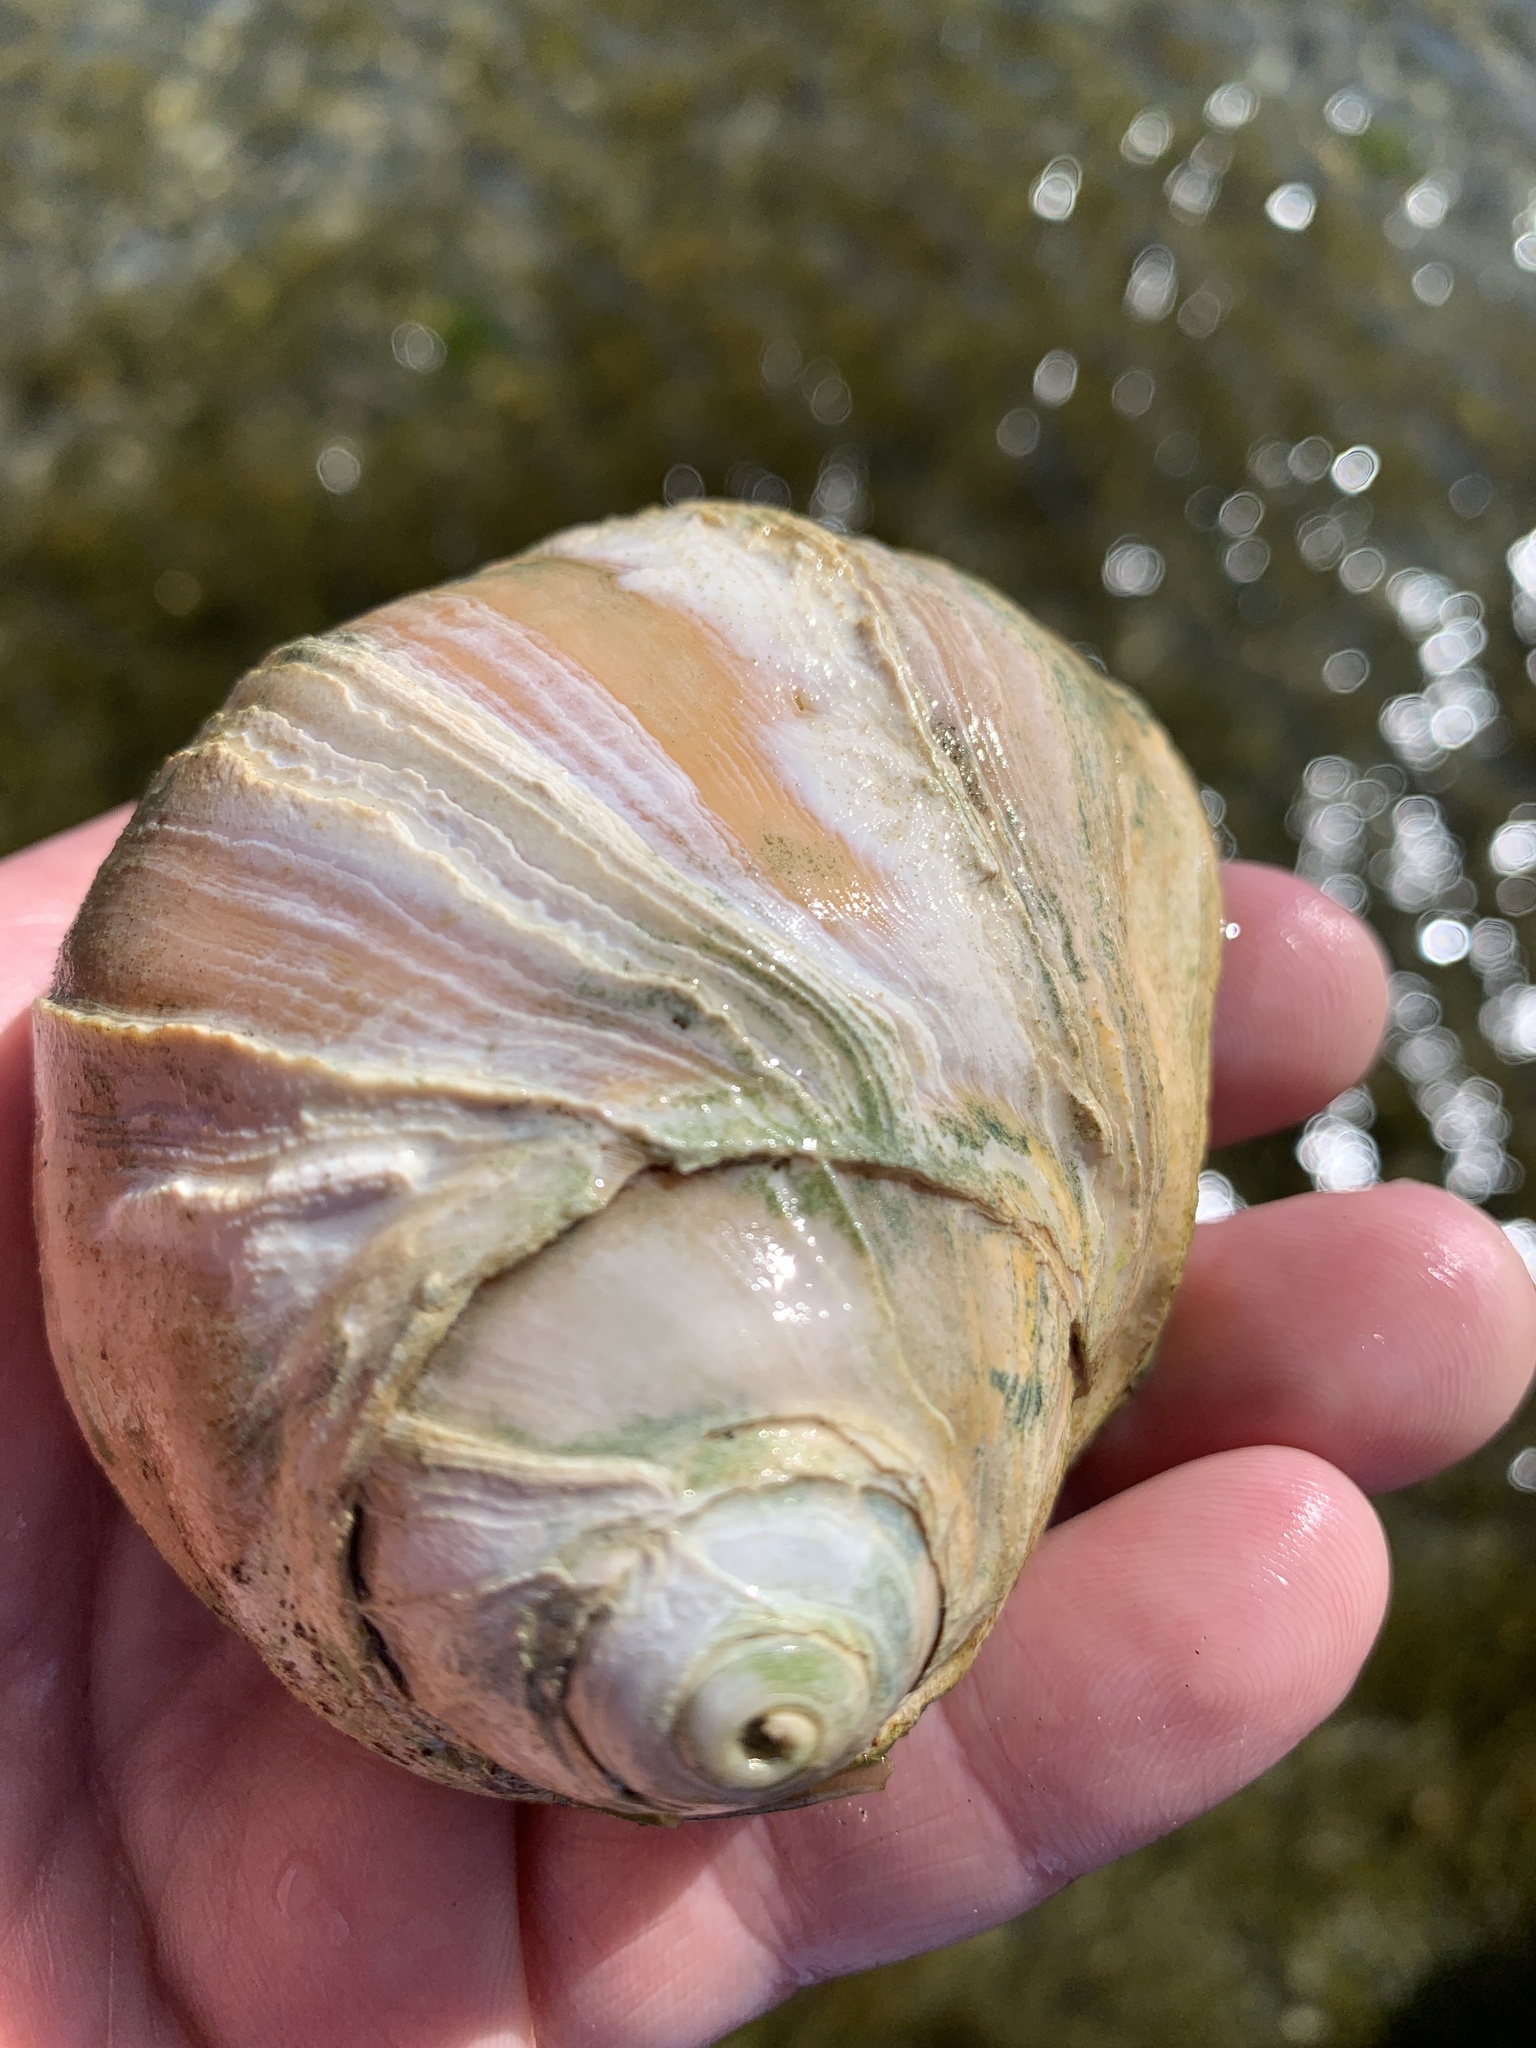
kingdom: Animalia
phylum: Mollusca
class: Gastropoda
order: Littorinimorpha
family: Naticidae
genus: Neverita
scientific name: Neverita lewisii
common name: Lewis' moonsnail
